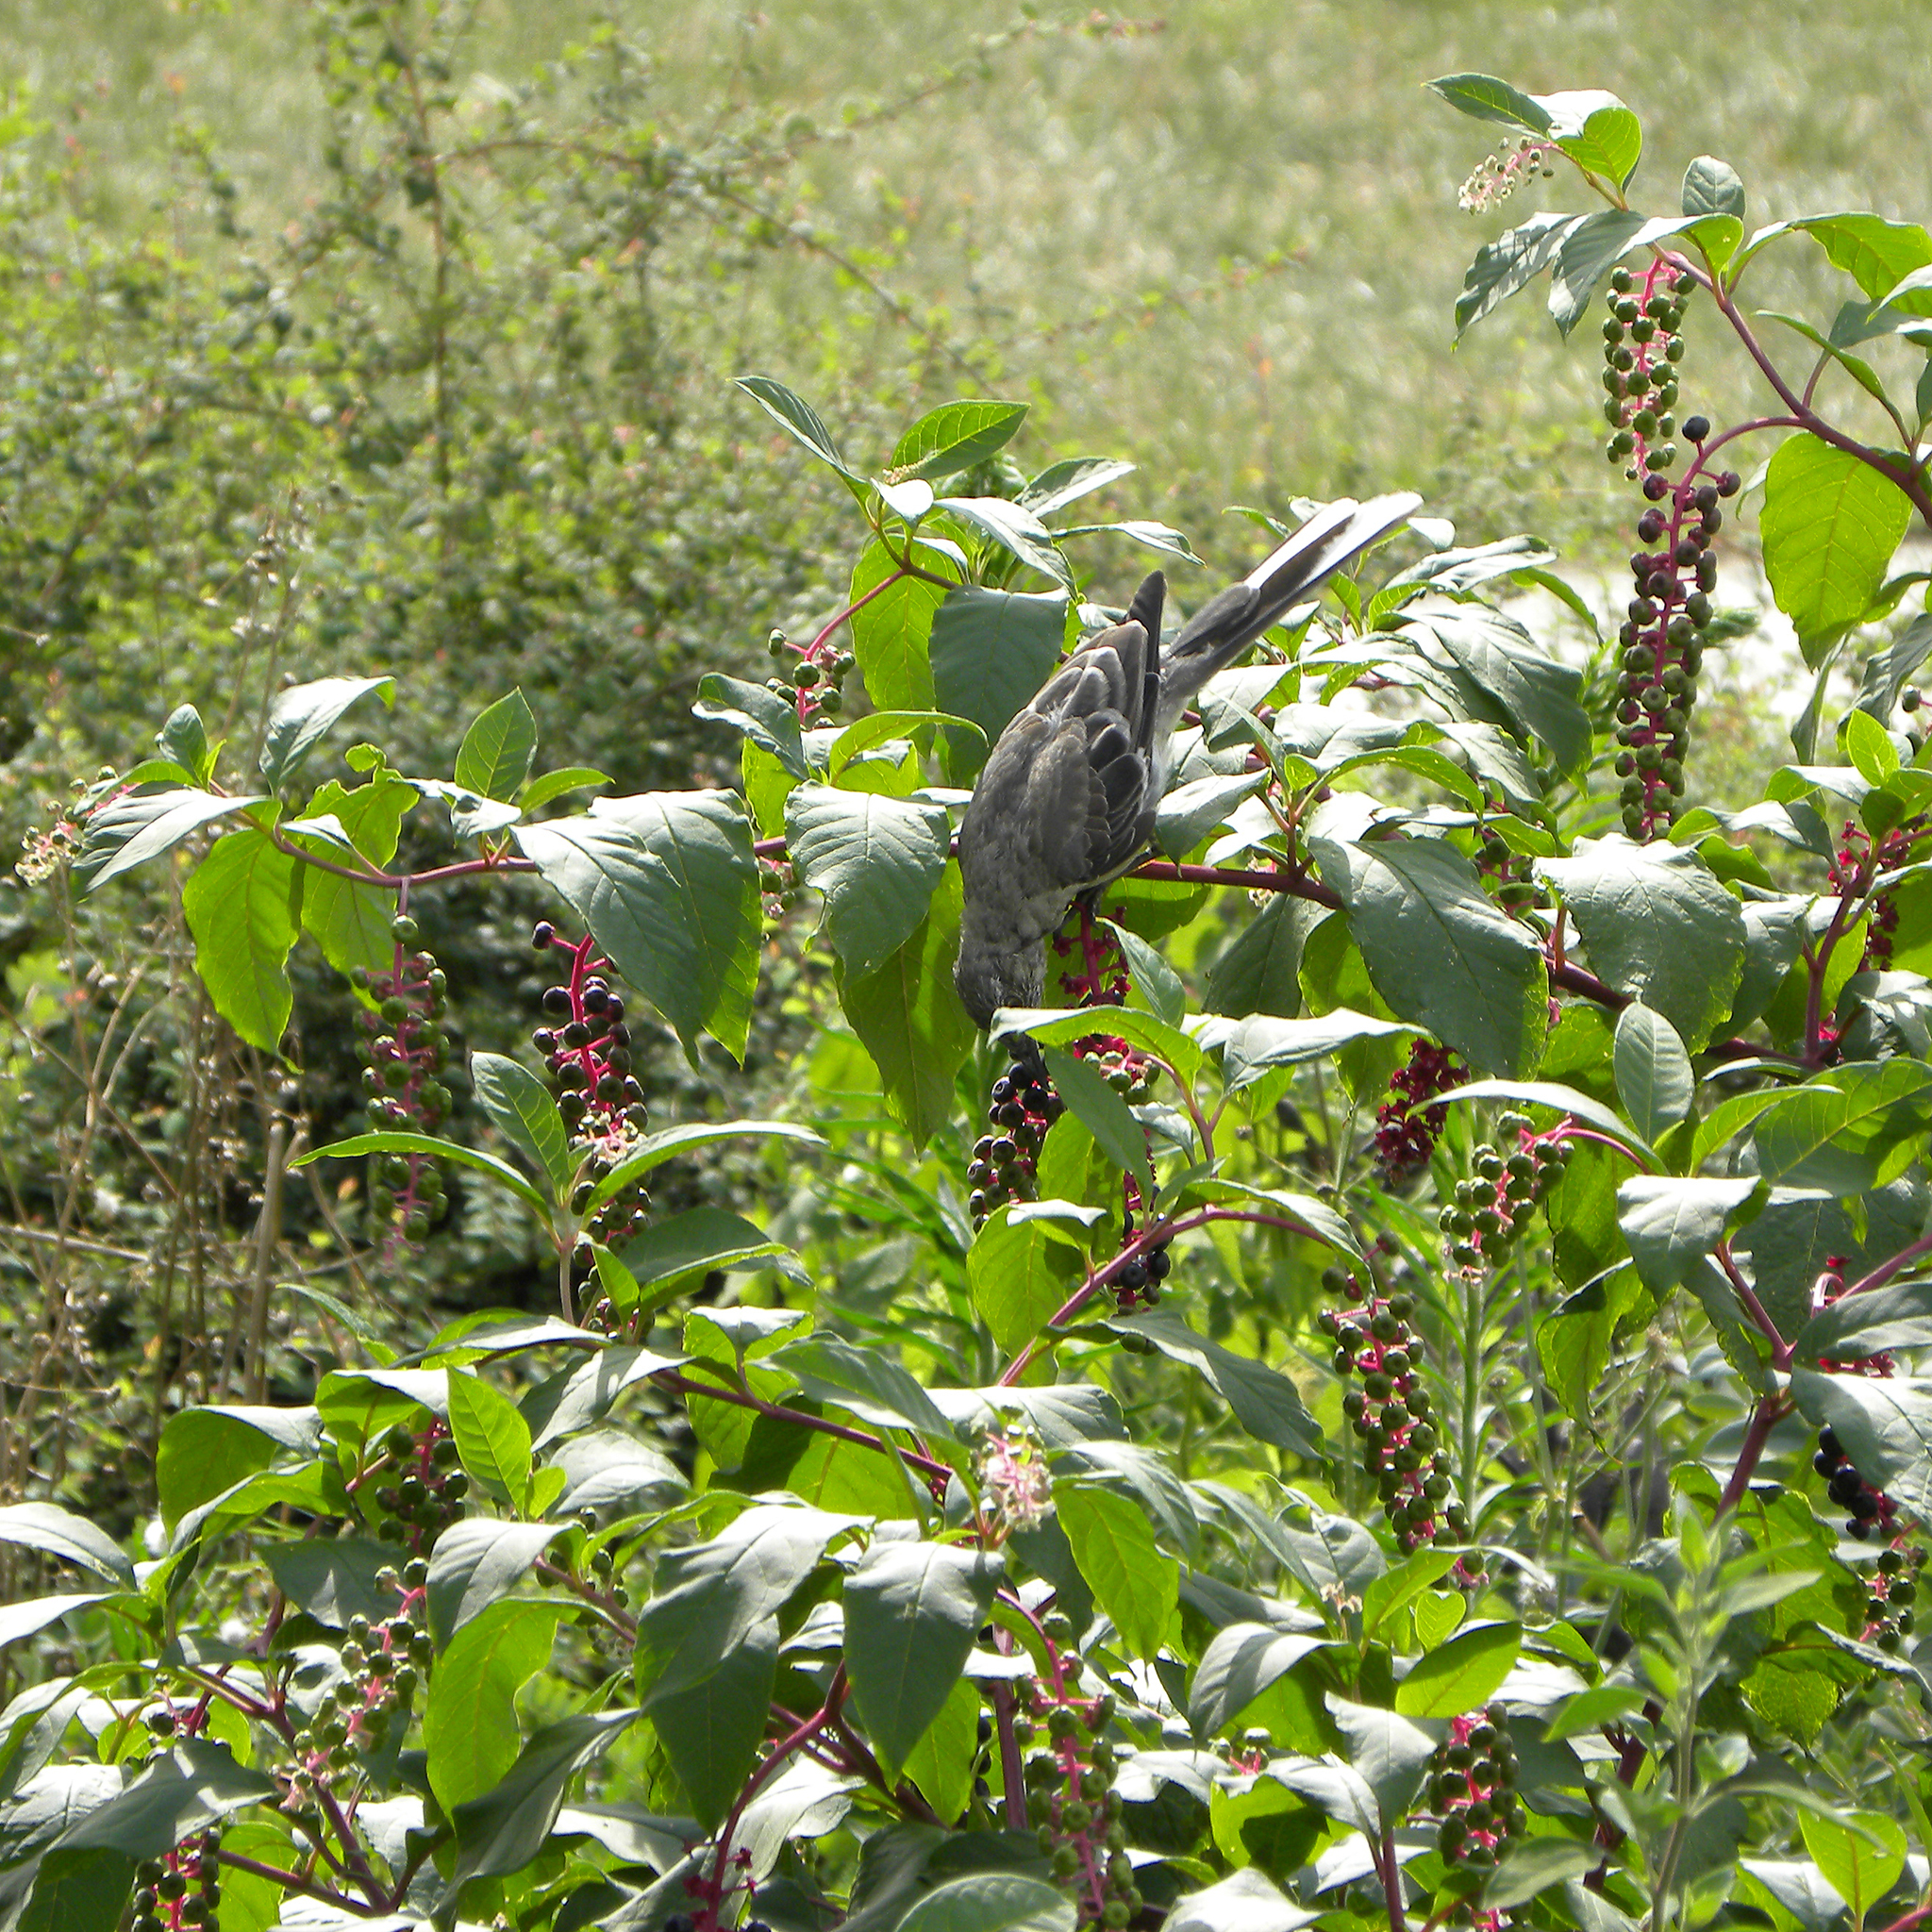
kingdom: Animalia
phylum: Chordata
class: Aves
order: Passeriformes
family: Mimidae
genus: Mimus
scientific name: Mimus polyglottos
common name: Northern mockingbird
